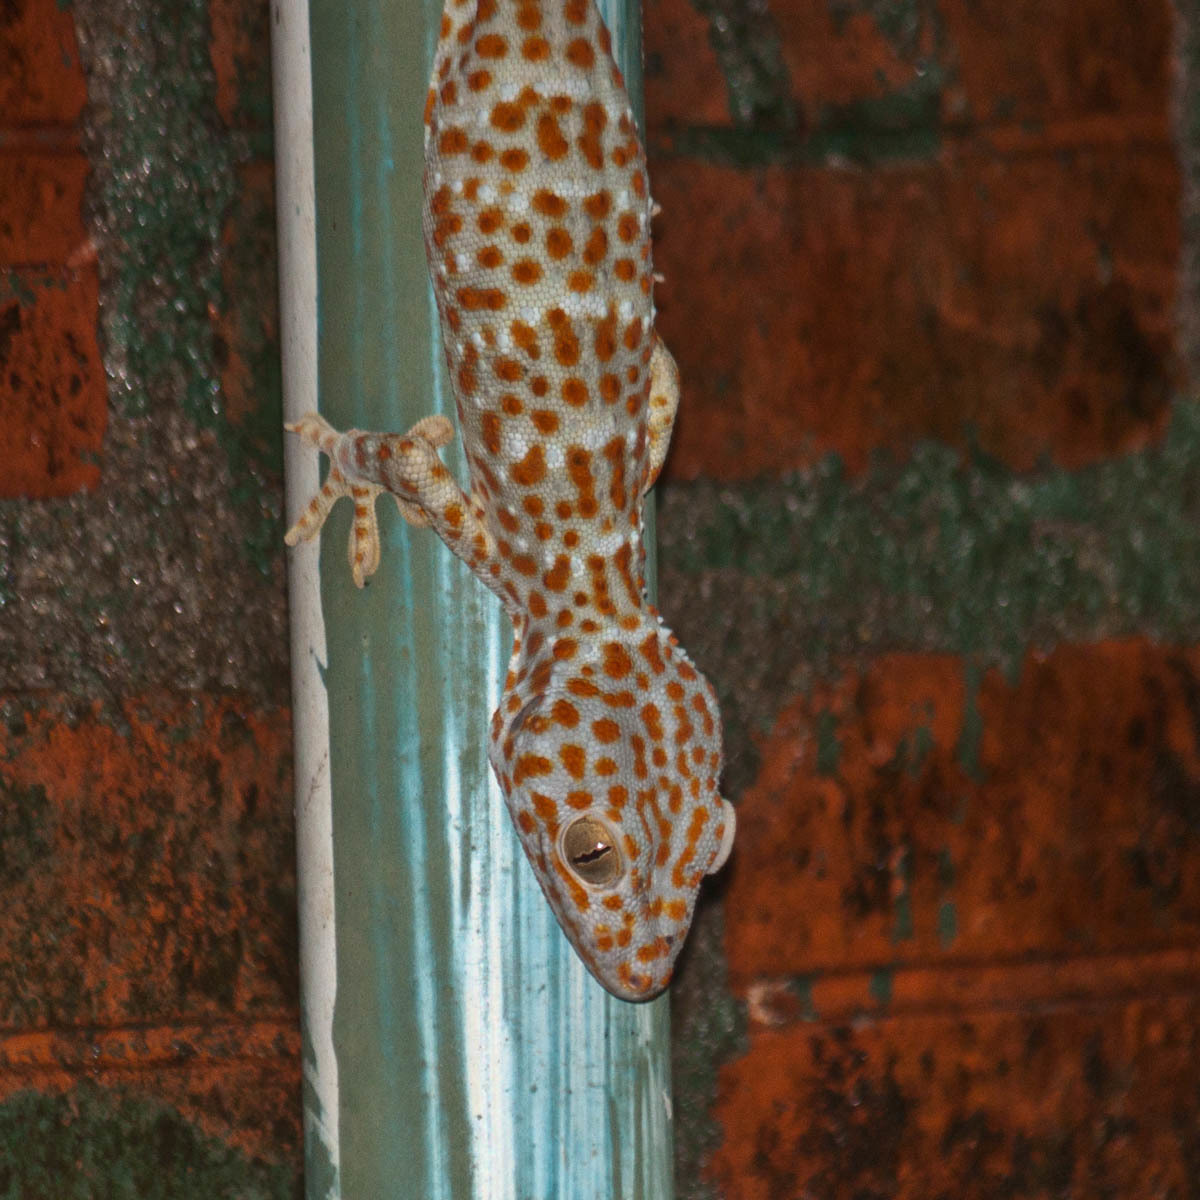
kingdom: Animalia
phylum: Chordata
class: Squamata
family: Gekkonidae
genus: Gekko
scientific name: Gekko gecko
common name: Tokay gecko
